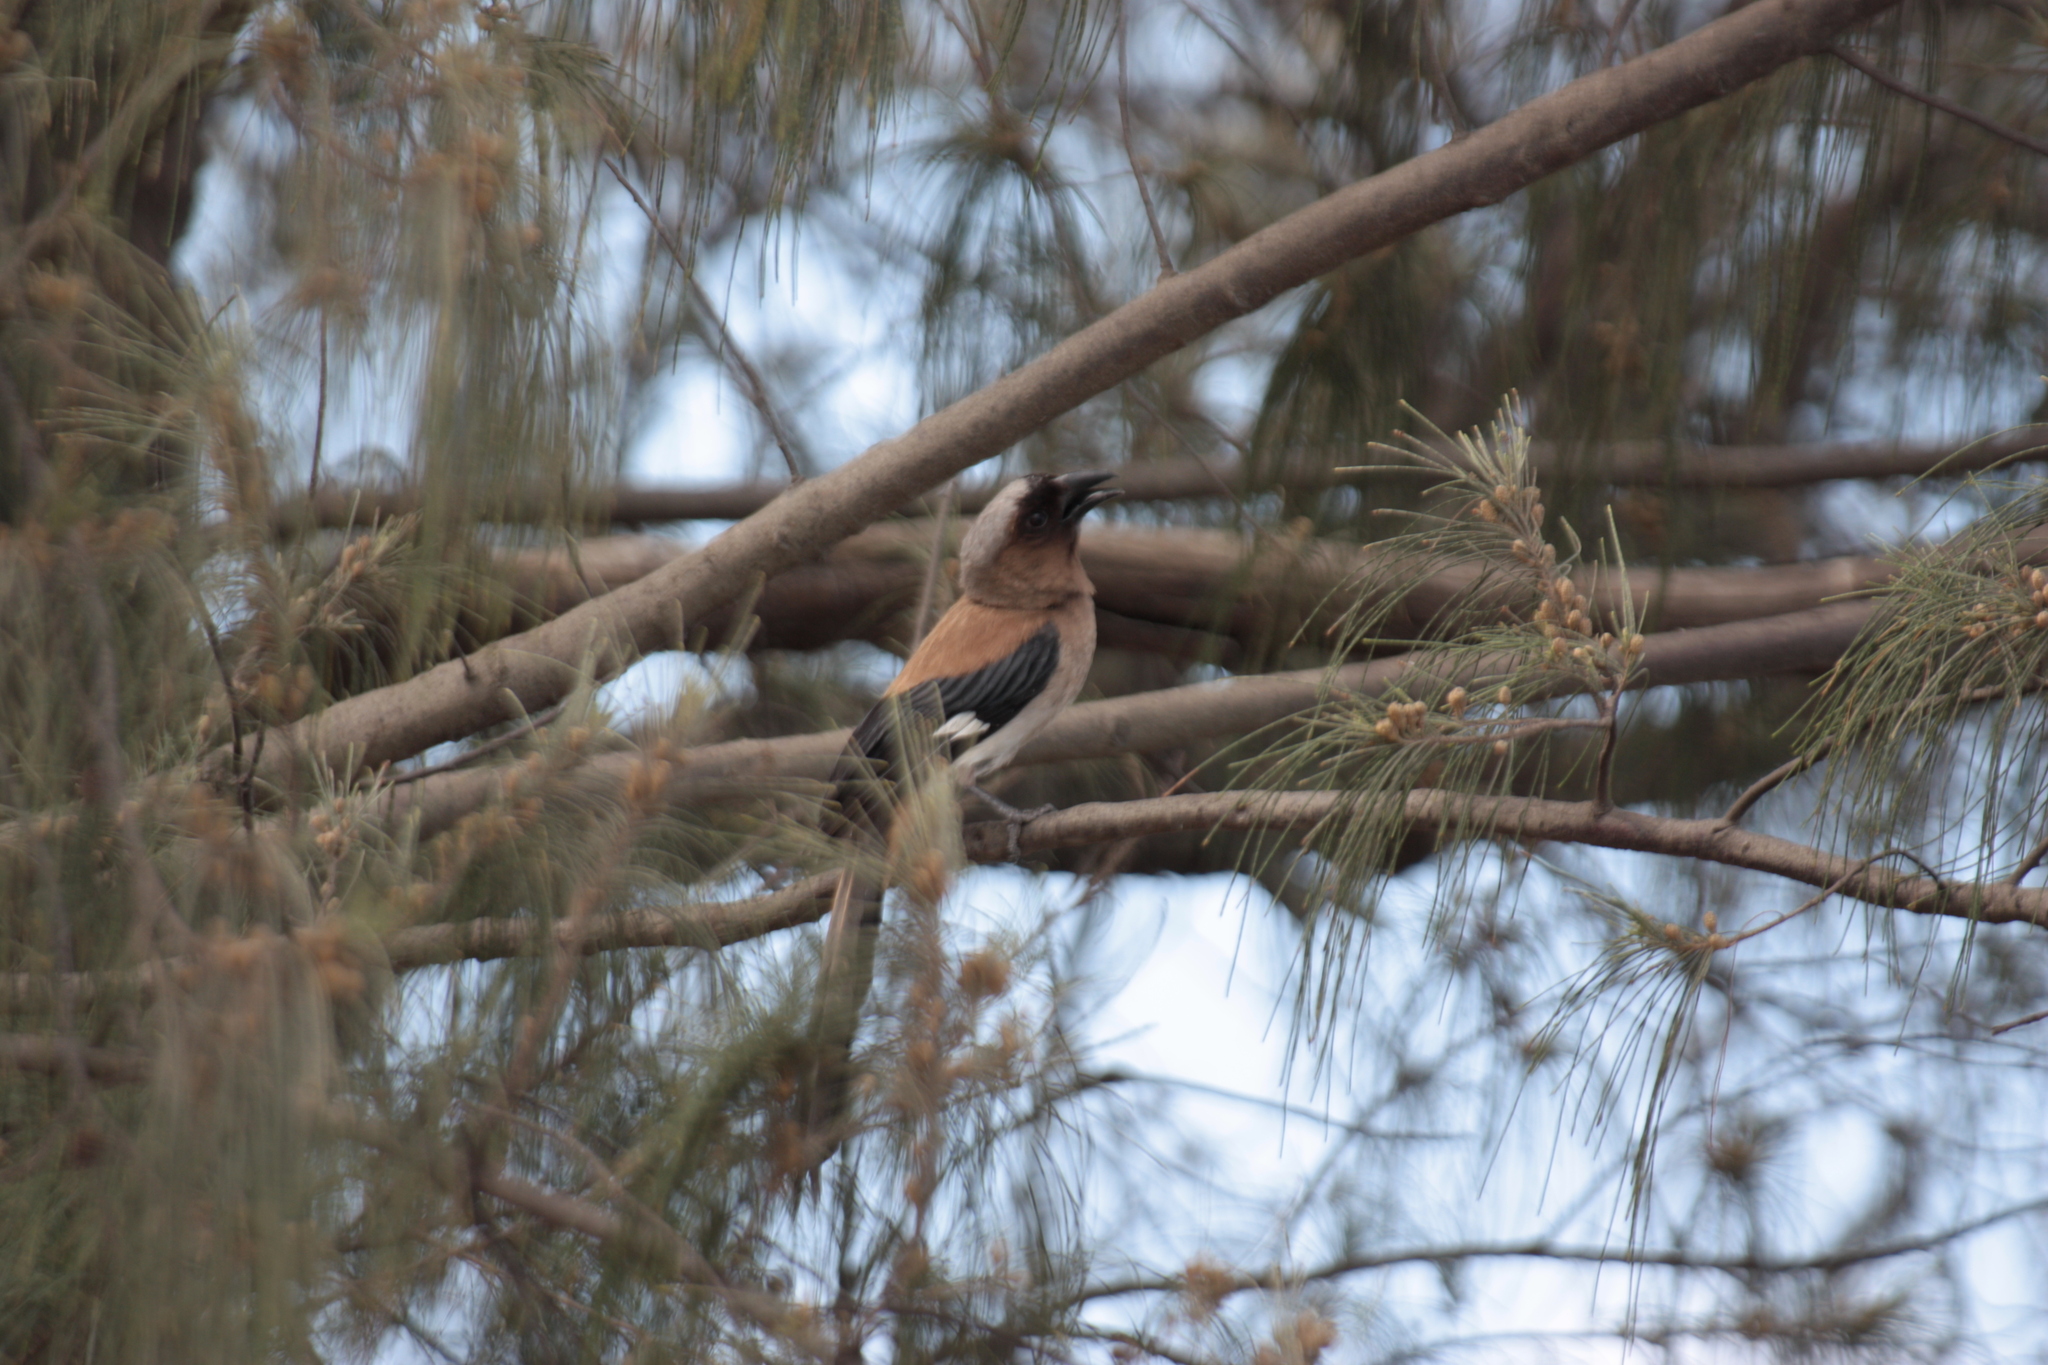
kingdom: Animalia
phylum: Chordata
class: Aves
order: Passeriformes
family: Corvidae
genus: Dendrocitta
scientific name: Dendrocitta formosae
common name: Grey treepie
